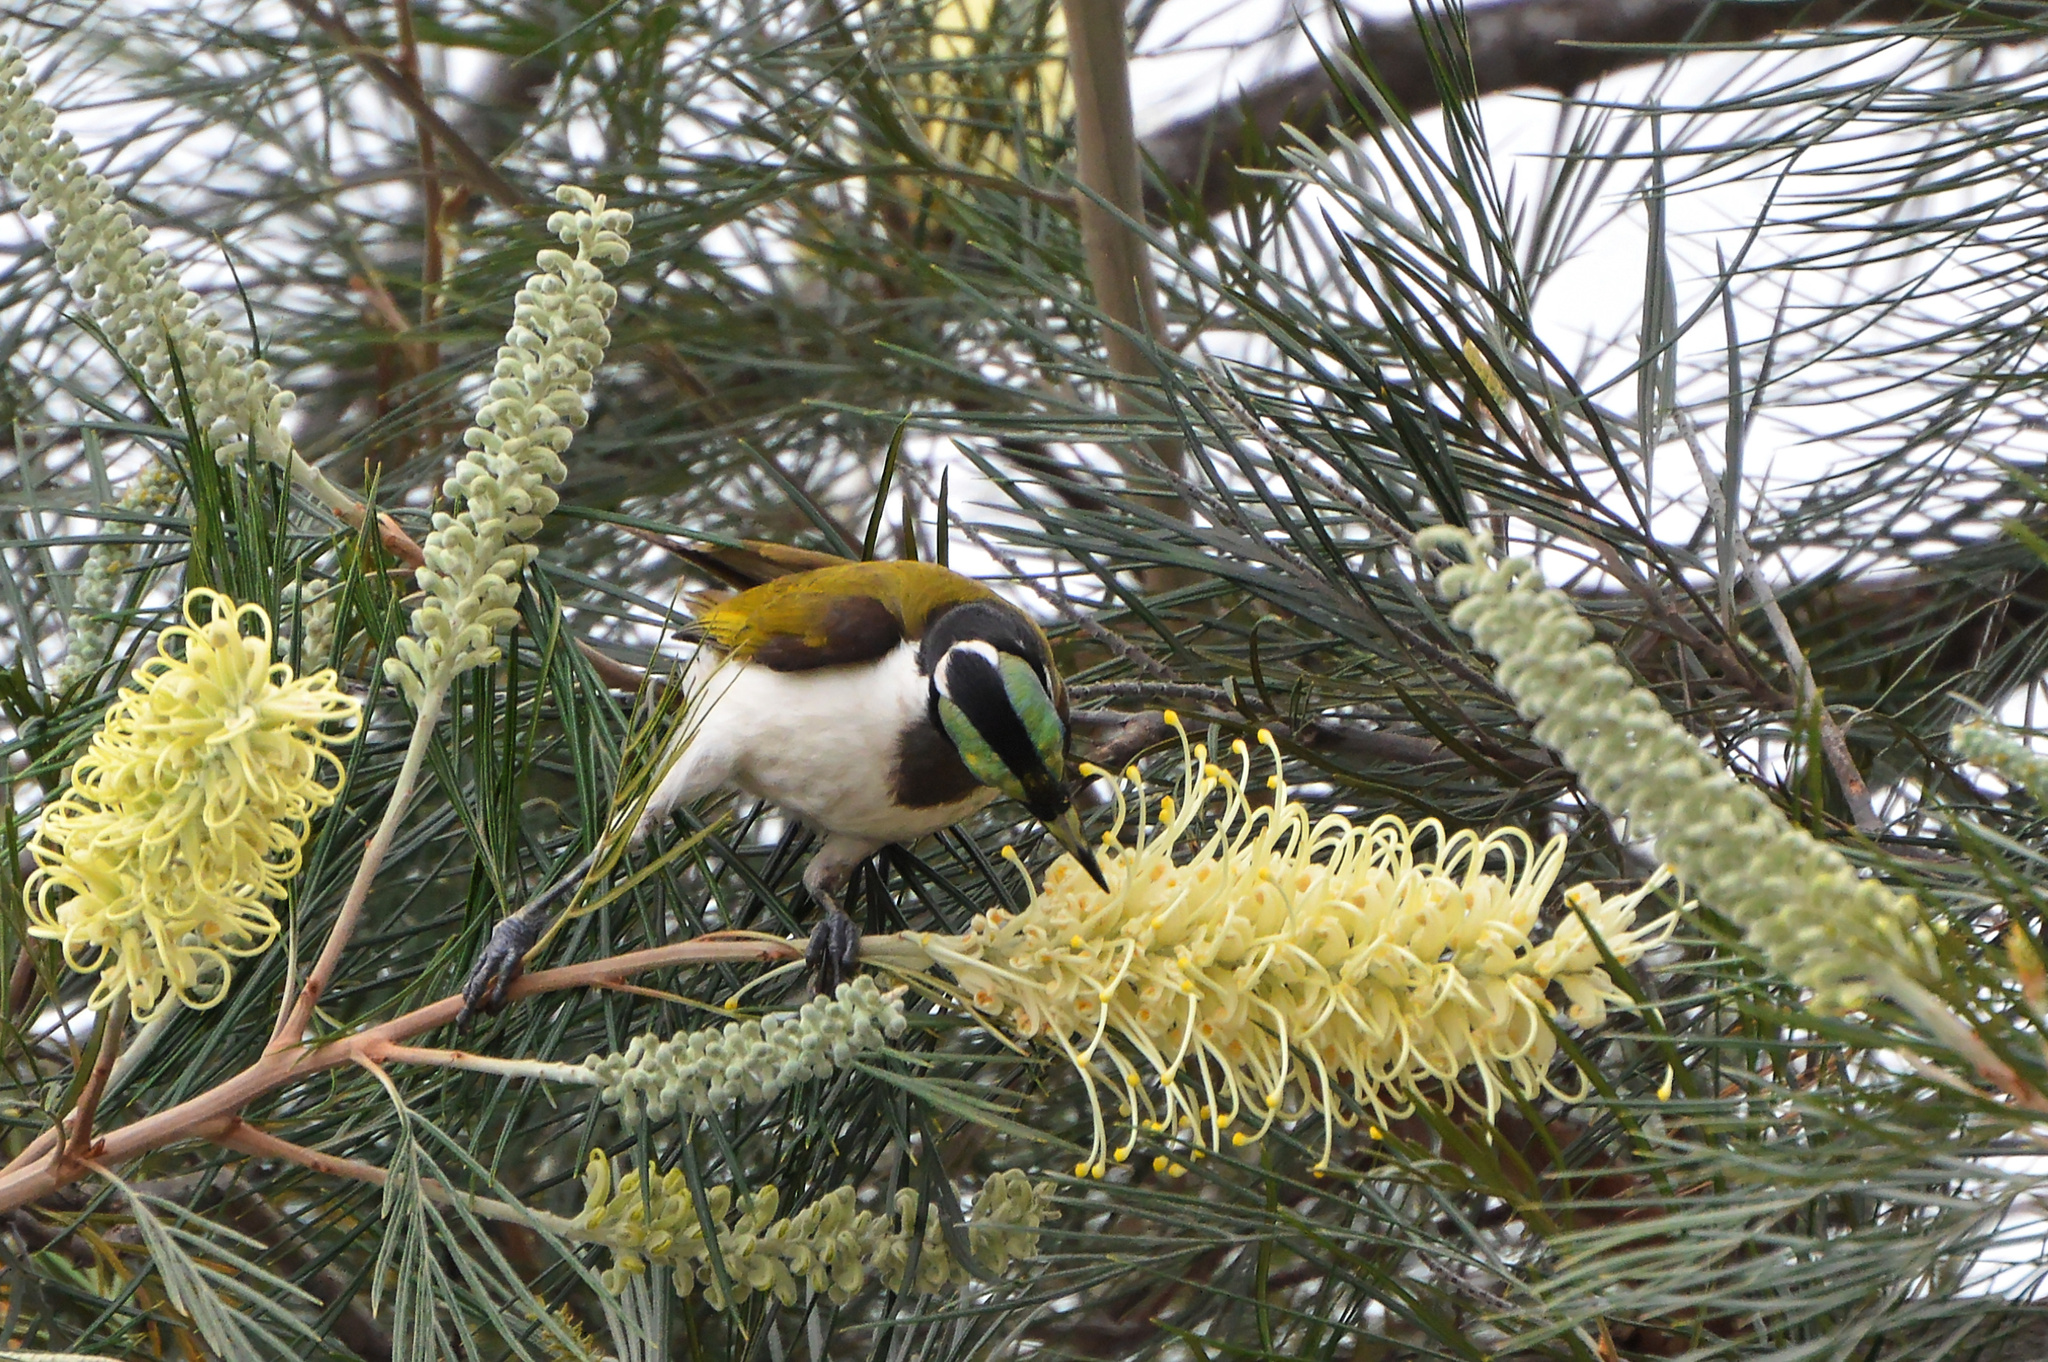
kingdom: Animalia
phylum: Chordata
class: Aves
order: Passeriformes
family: Meliphagidae
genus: Entomyzon
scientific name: Entomyzon cyanotis
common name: Blue-faced honeyeater
